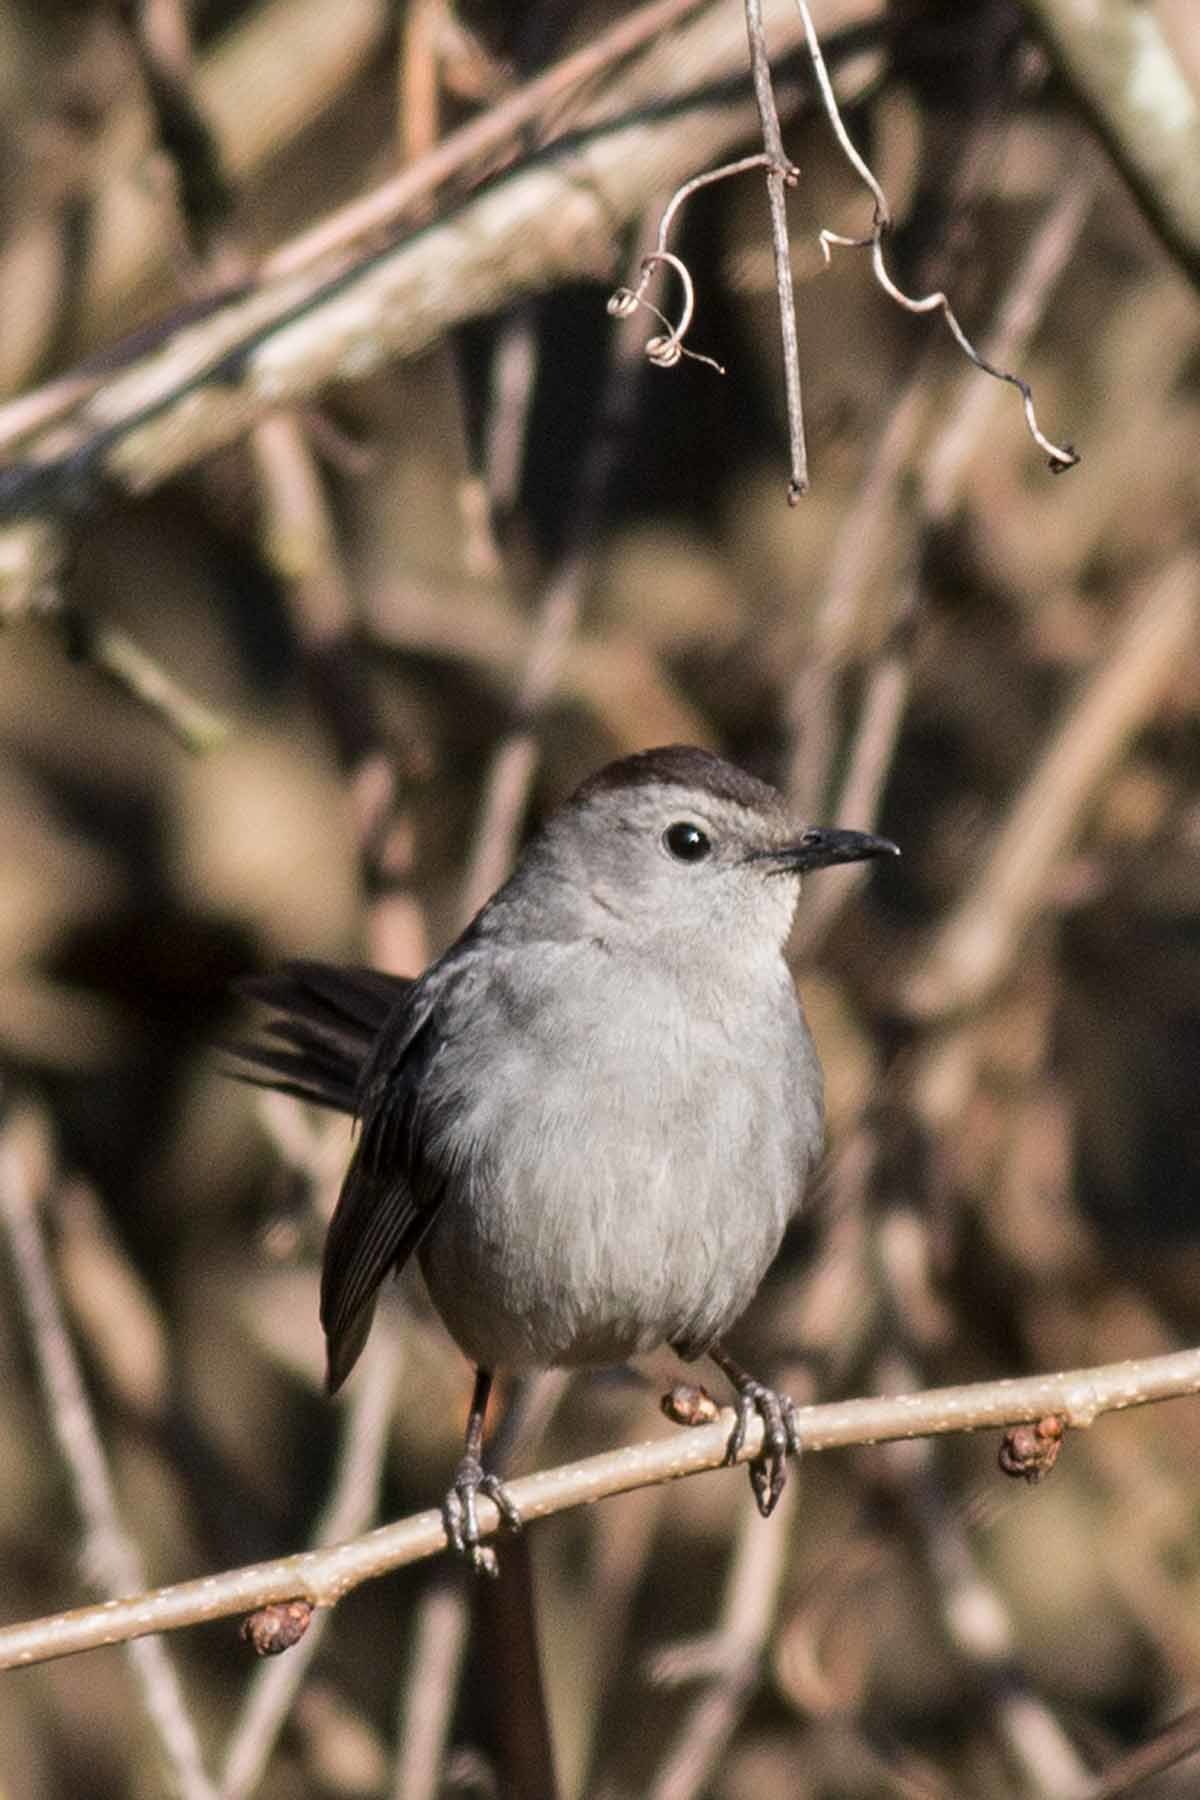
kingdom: Animalia
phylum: Chordata
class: Aves
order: Passeriformes
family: Mimidae
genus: Dumetella
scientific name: Dumetella carolinensis
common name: Gray catbird
